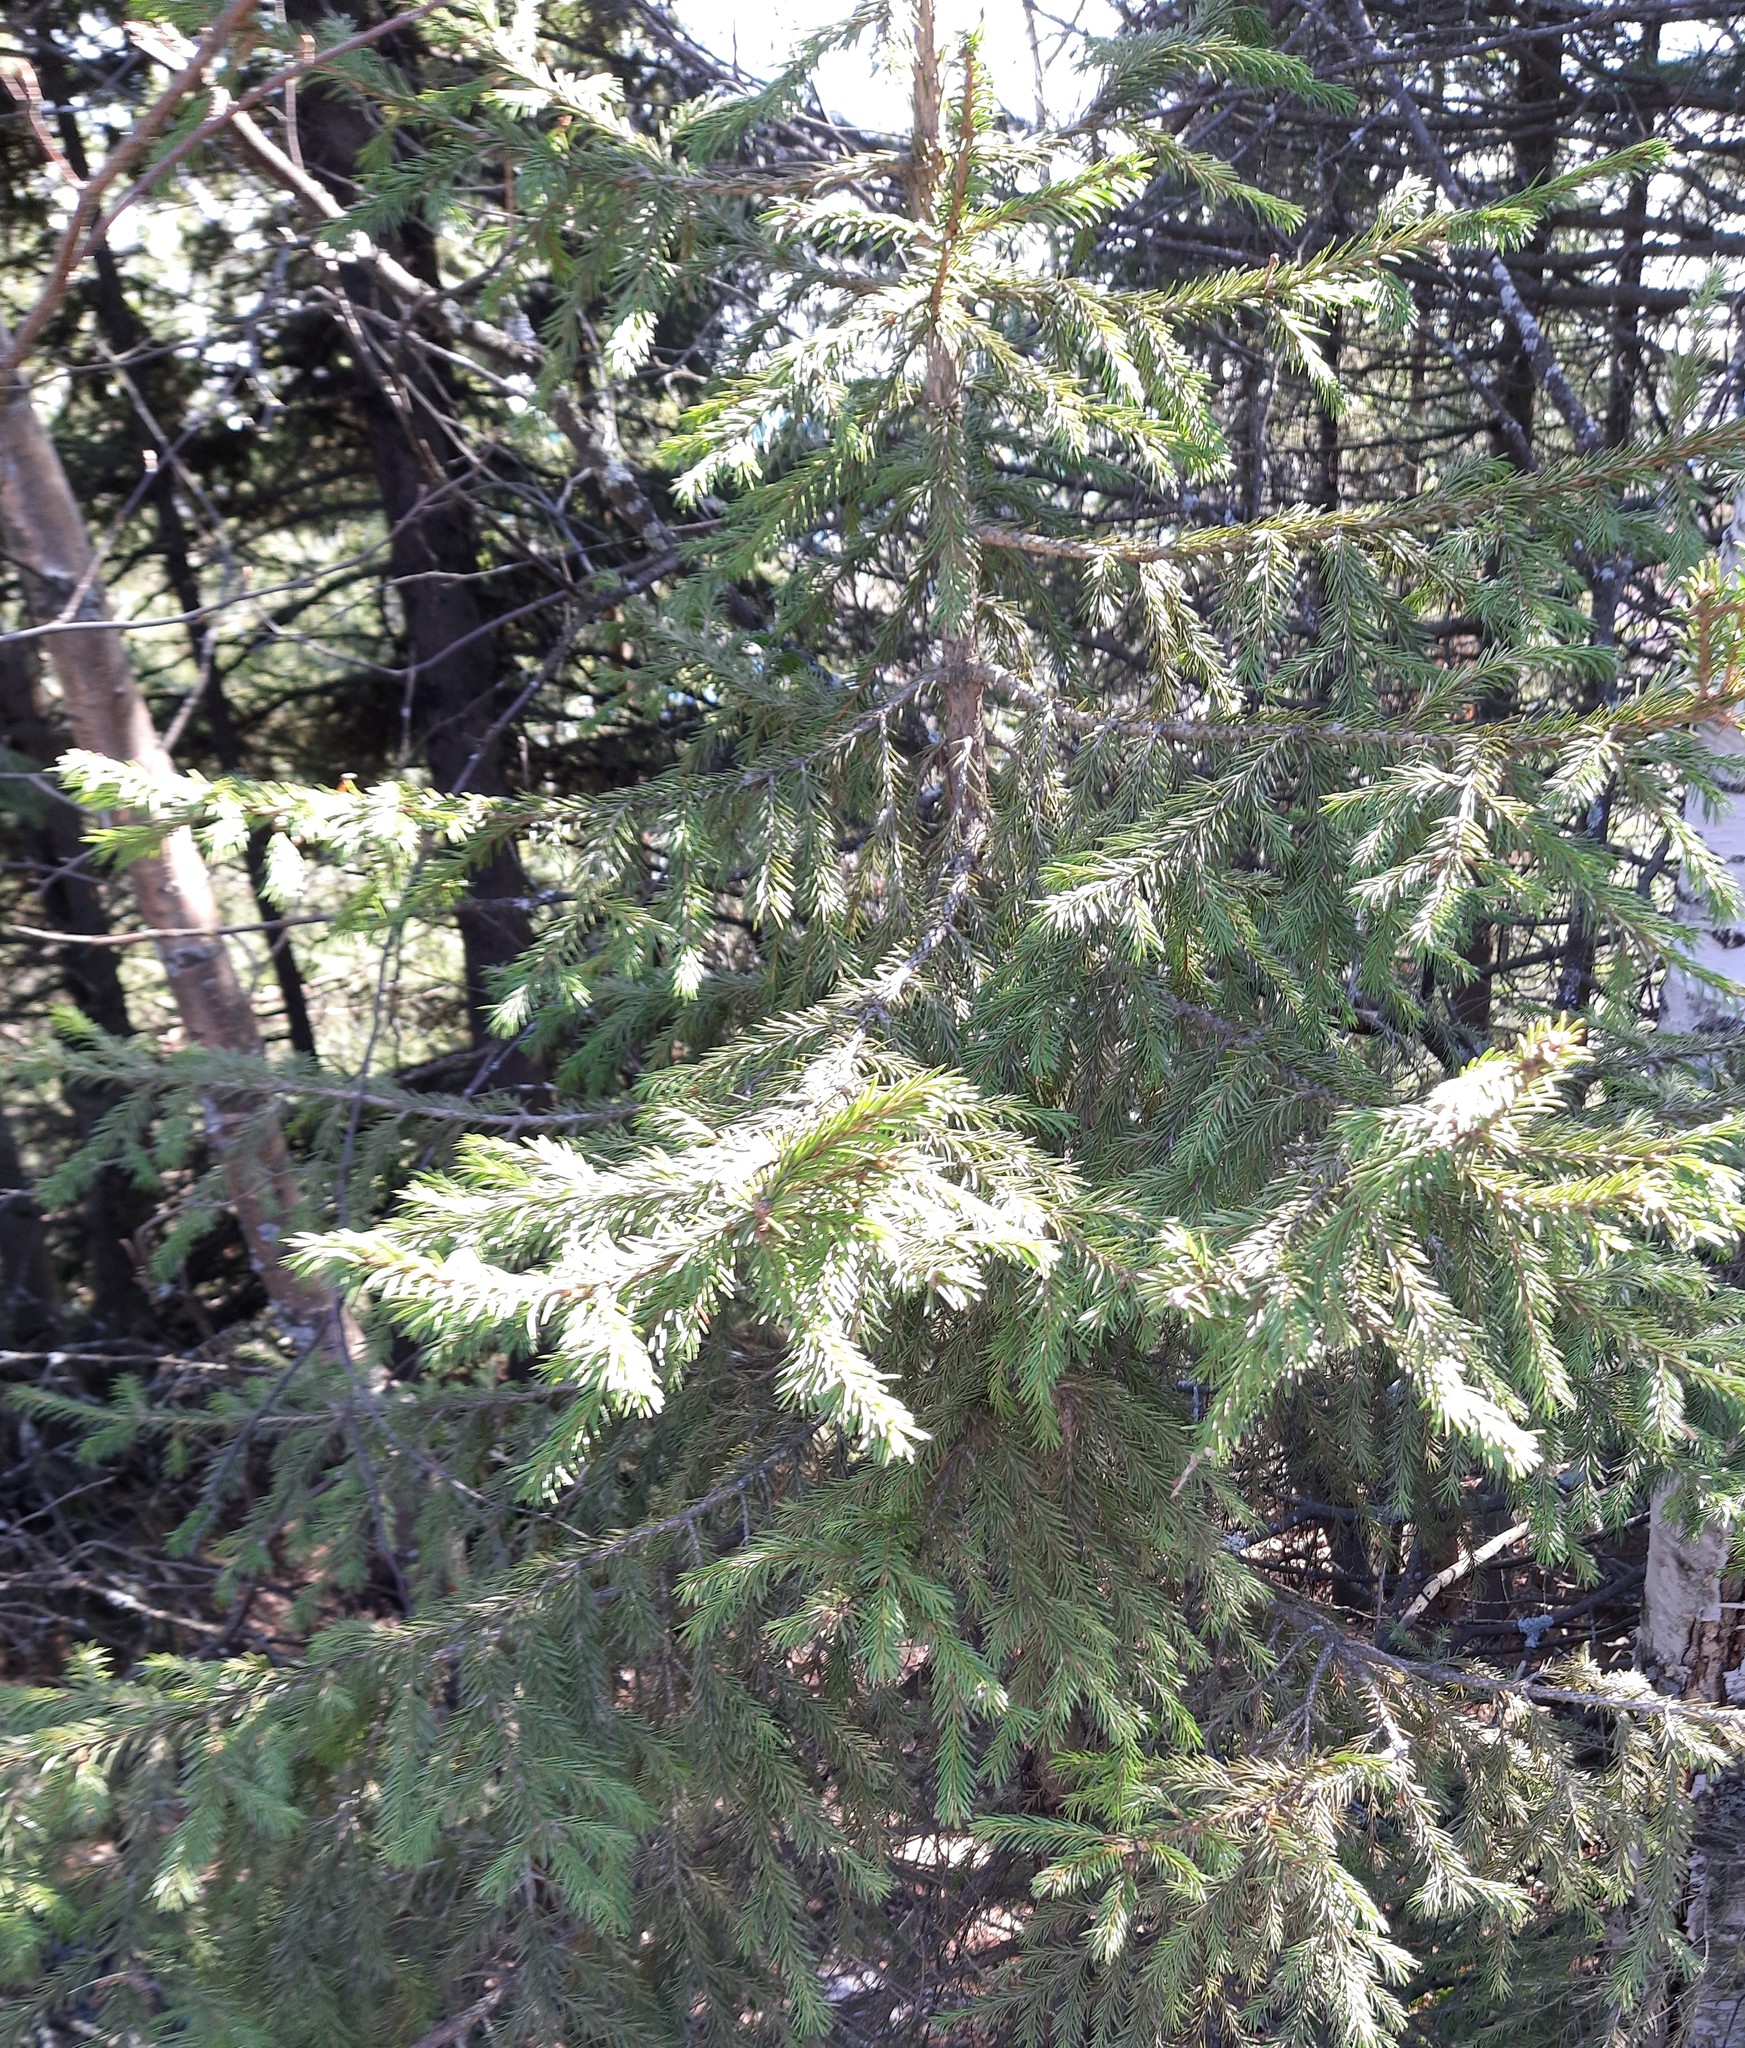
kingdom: Plantae
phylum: Tracheophyta
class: Pinopsida
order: Pinales
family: Pinaceae
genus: Picea
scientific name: Picea obovata
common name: Siberian spruce
